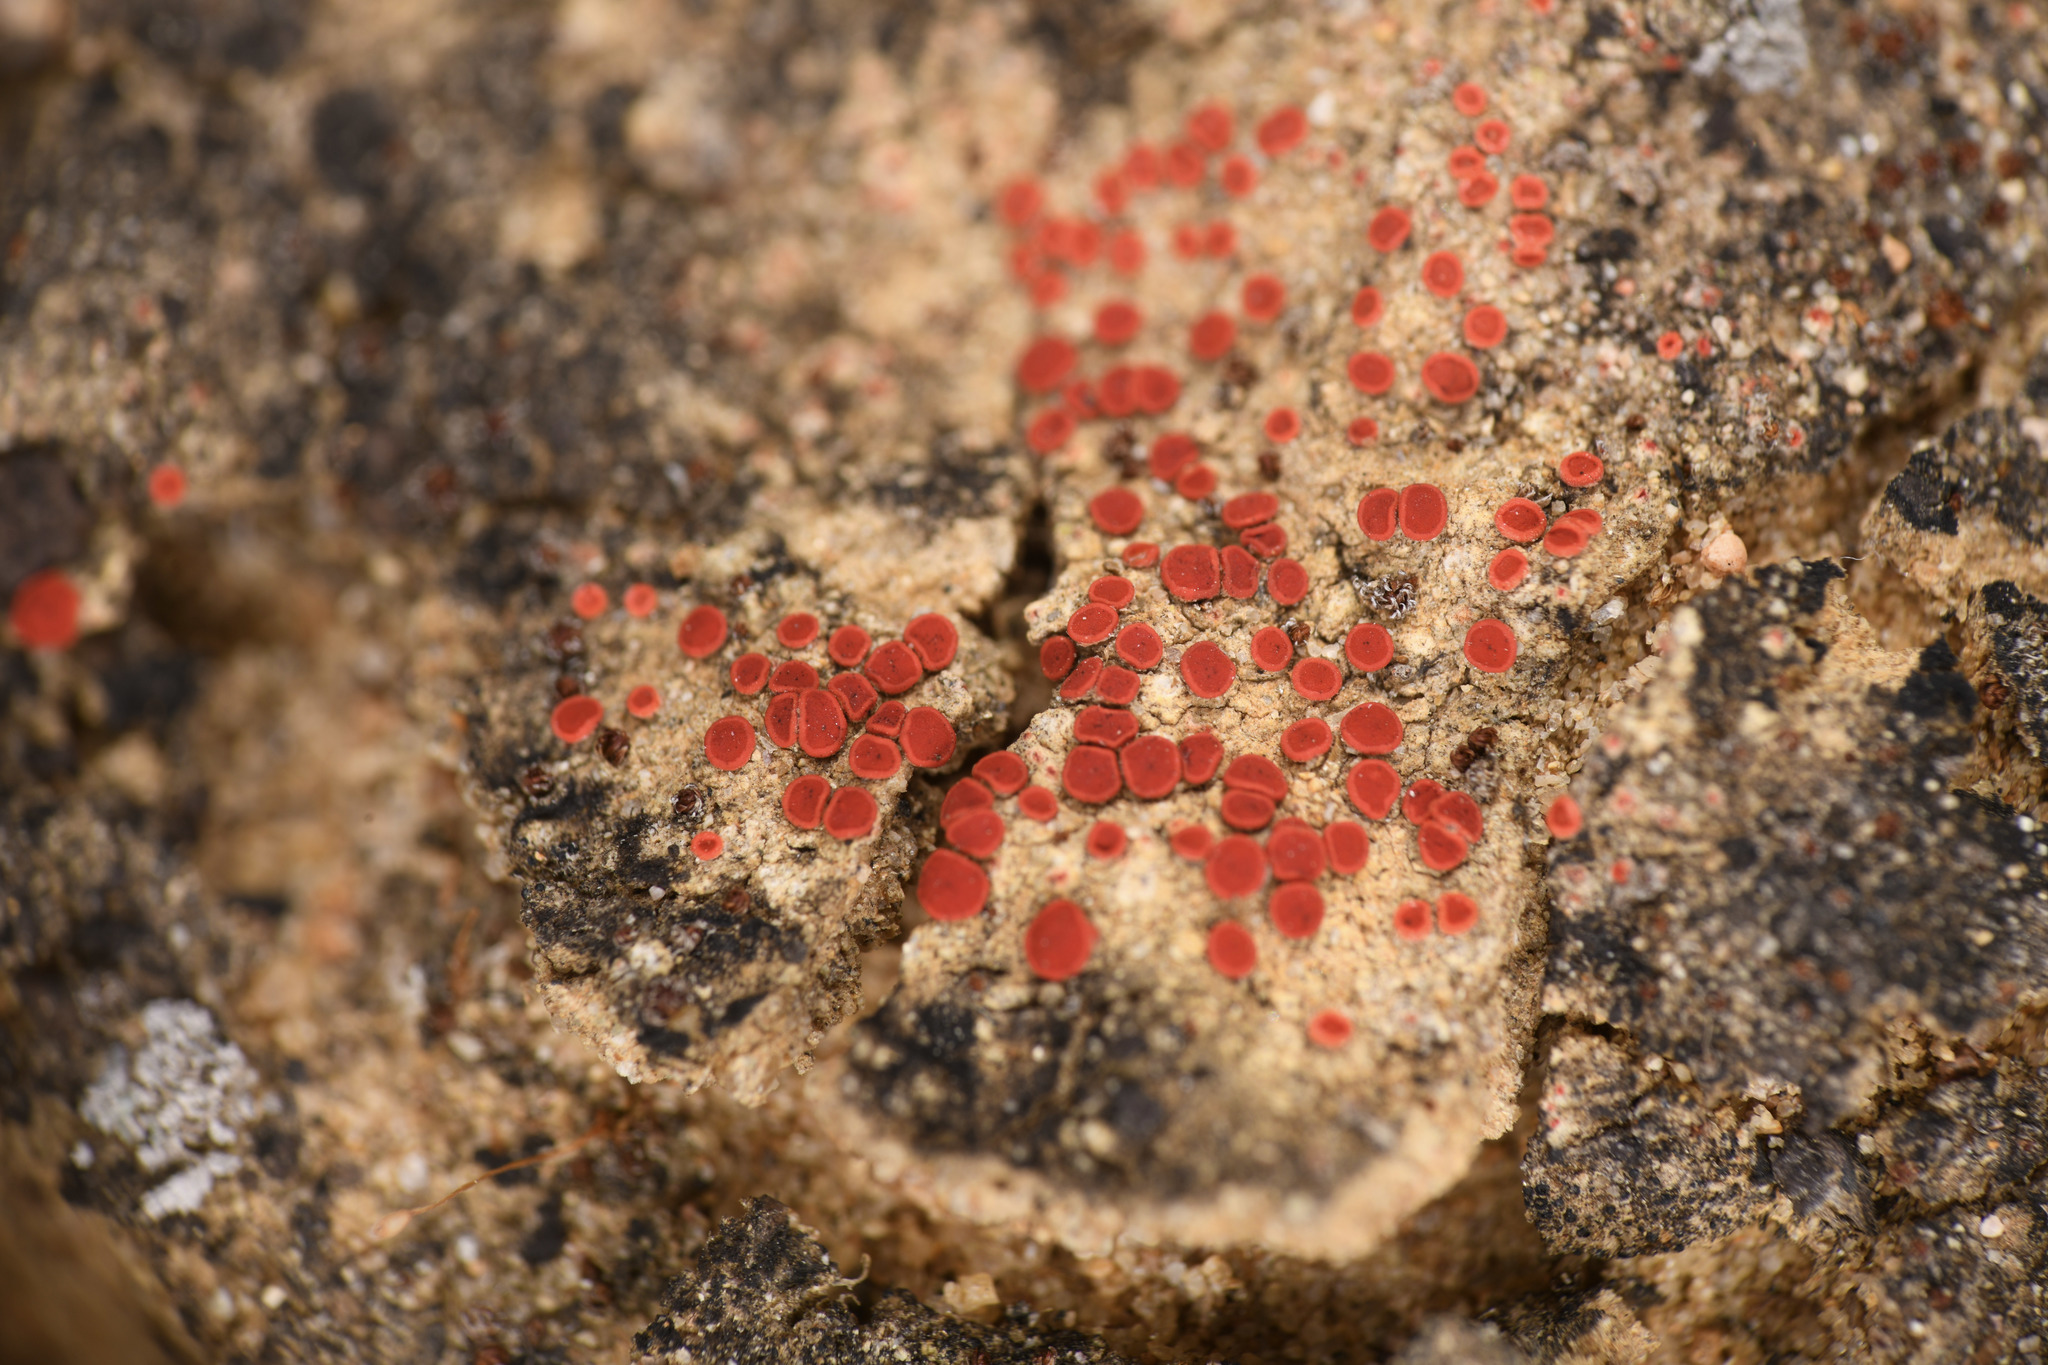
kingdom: Fungi
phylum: Ascomycota
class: Lecanoromycetes
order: Teloschistales
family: Teloschistaceae
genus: Tomnashia
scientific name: Tomnashia luteominia
